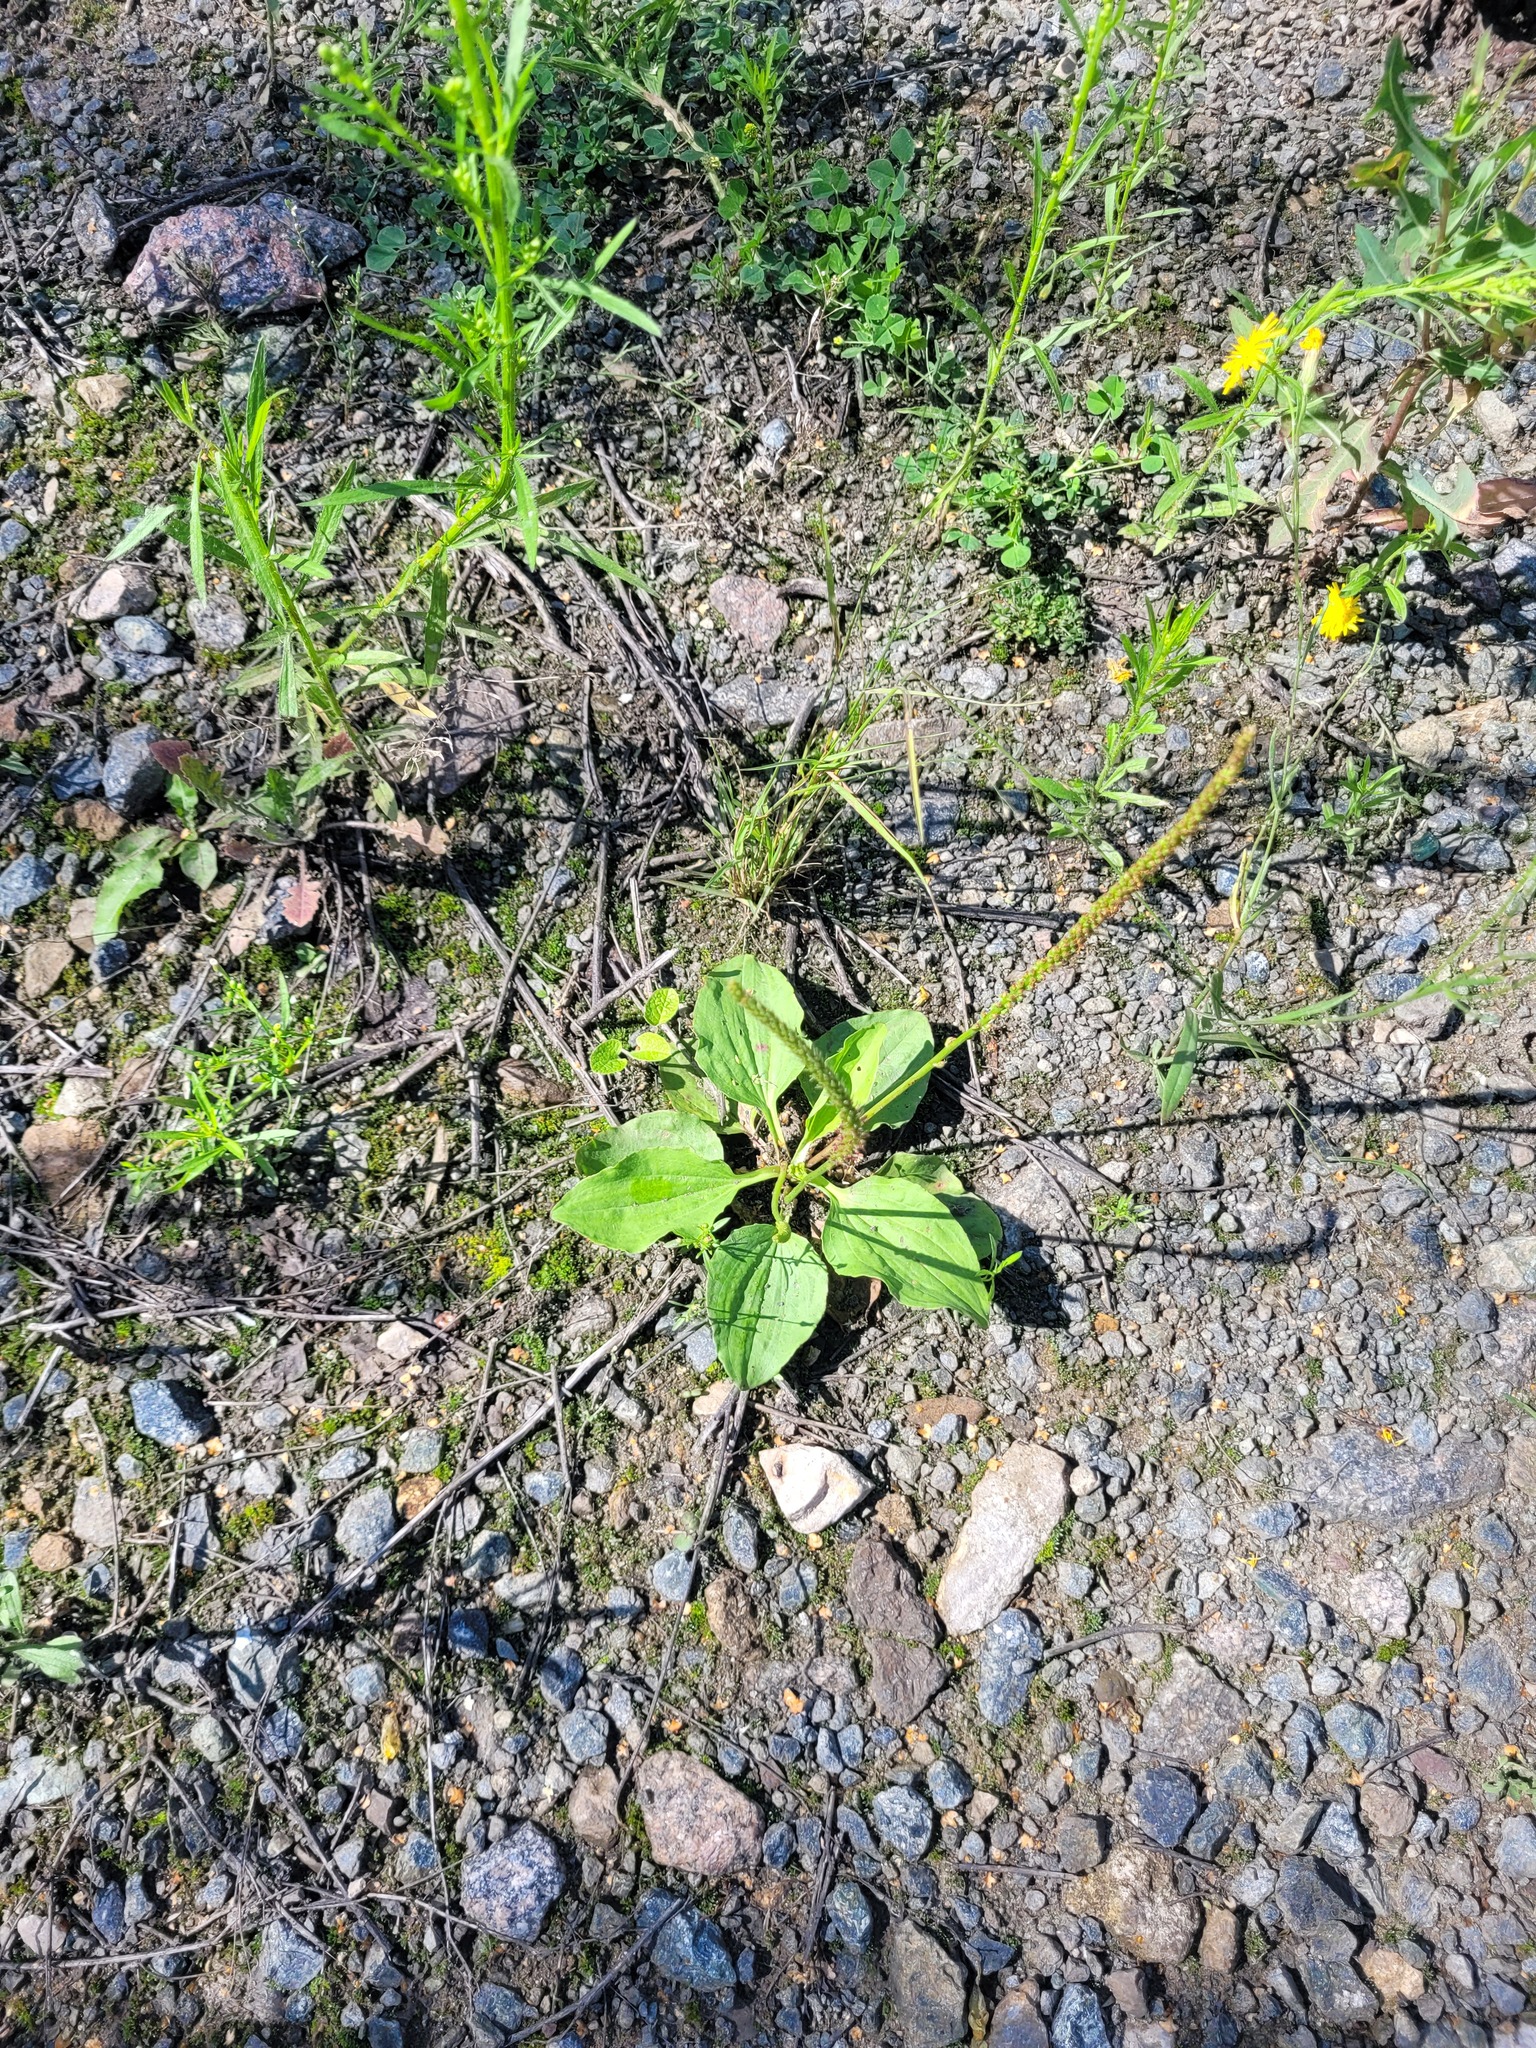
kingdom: Plantae
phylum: Tracheophyta
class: Magnoliopsida
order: Lamiales
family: Plantaginaceae
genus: Plantago
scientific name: Plantago major
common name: Common plantain
